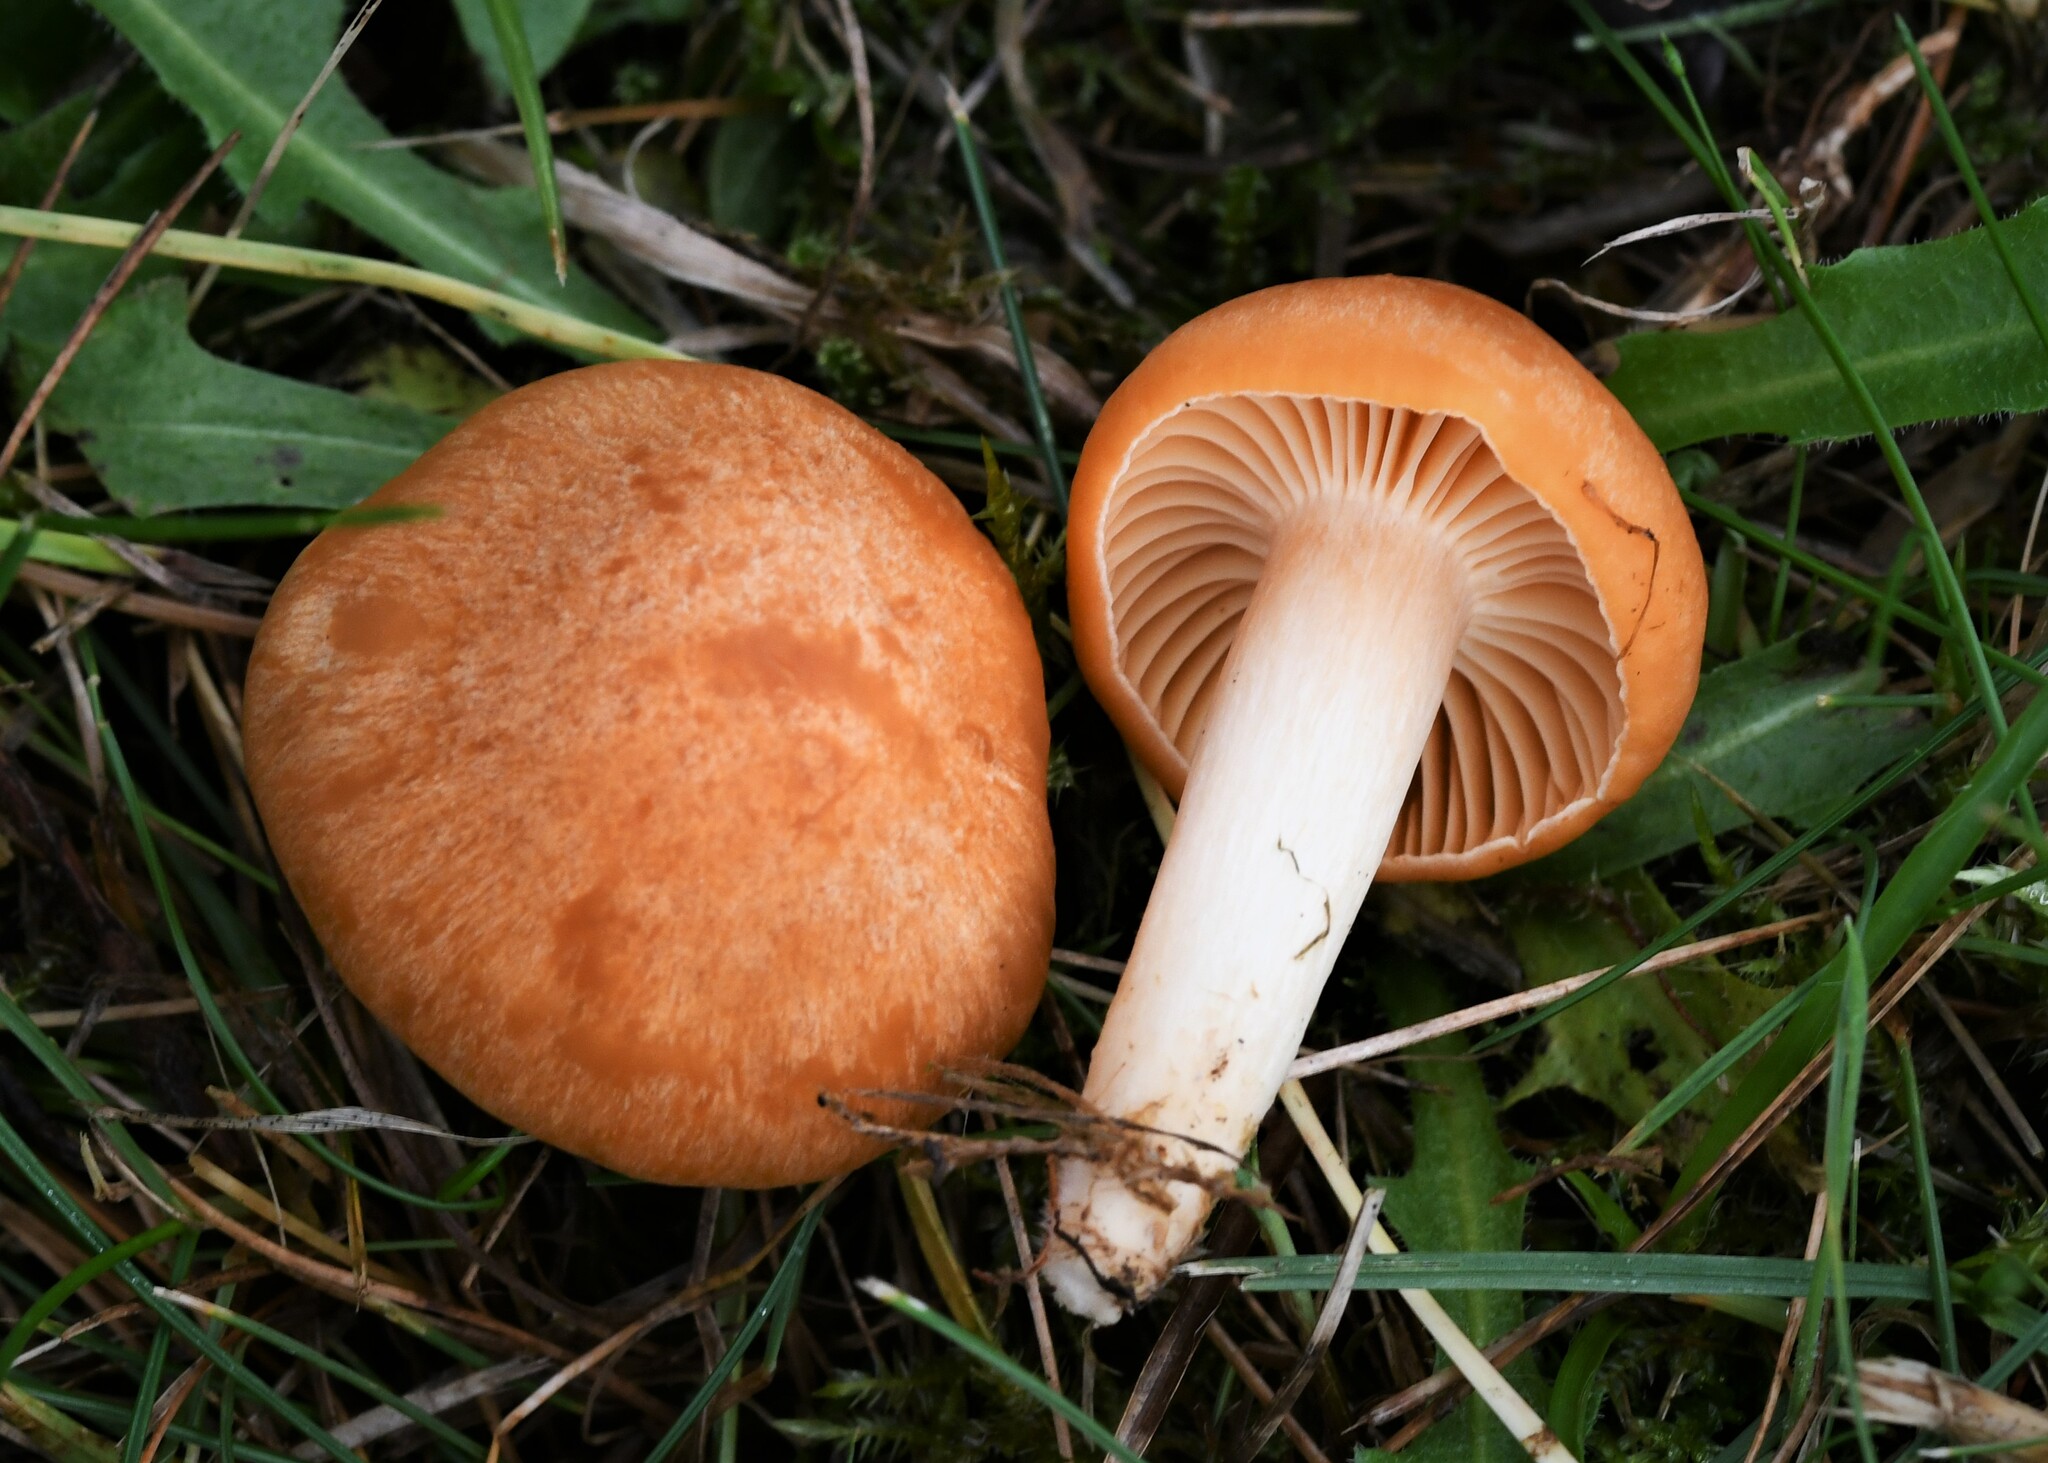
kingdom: Fungi
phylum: Basidiomycota
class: Agaricomycetes
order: Agaricales
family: Hygrophoraceae
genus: Cuphophyllus
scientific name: Cuphophyllus pratensis
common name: Meadow waxcap
